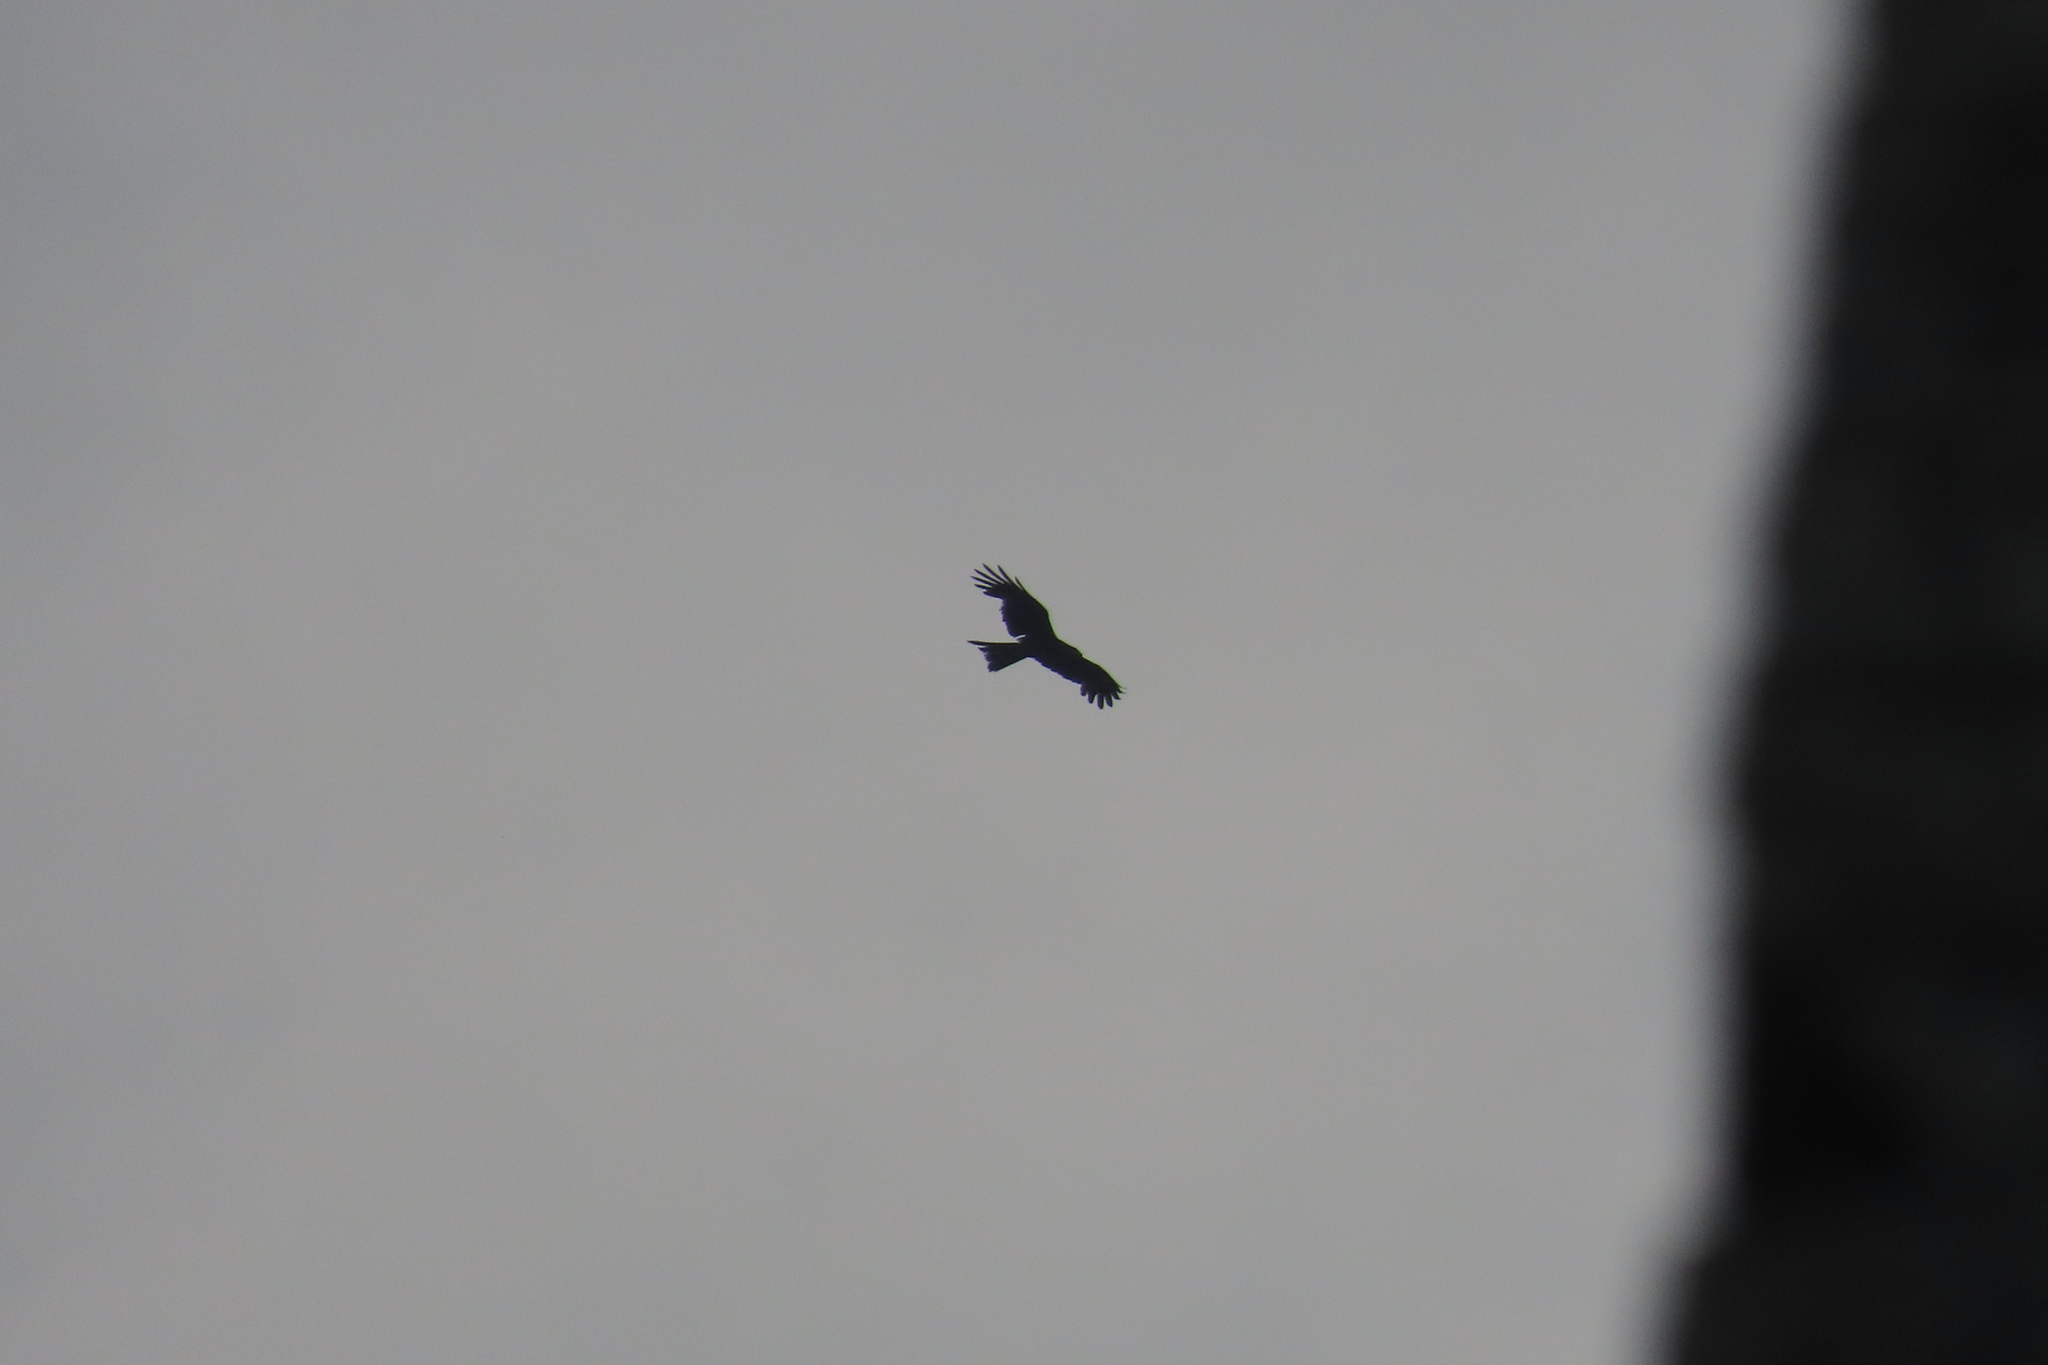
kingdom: Animalia
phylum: Chordata
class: Aves
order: Accipitriformes
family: Accipitridae
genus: Milvus
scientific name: Milvus migrans
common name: Black kite
